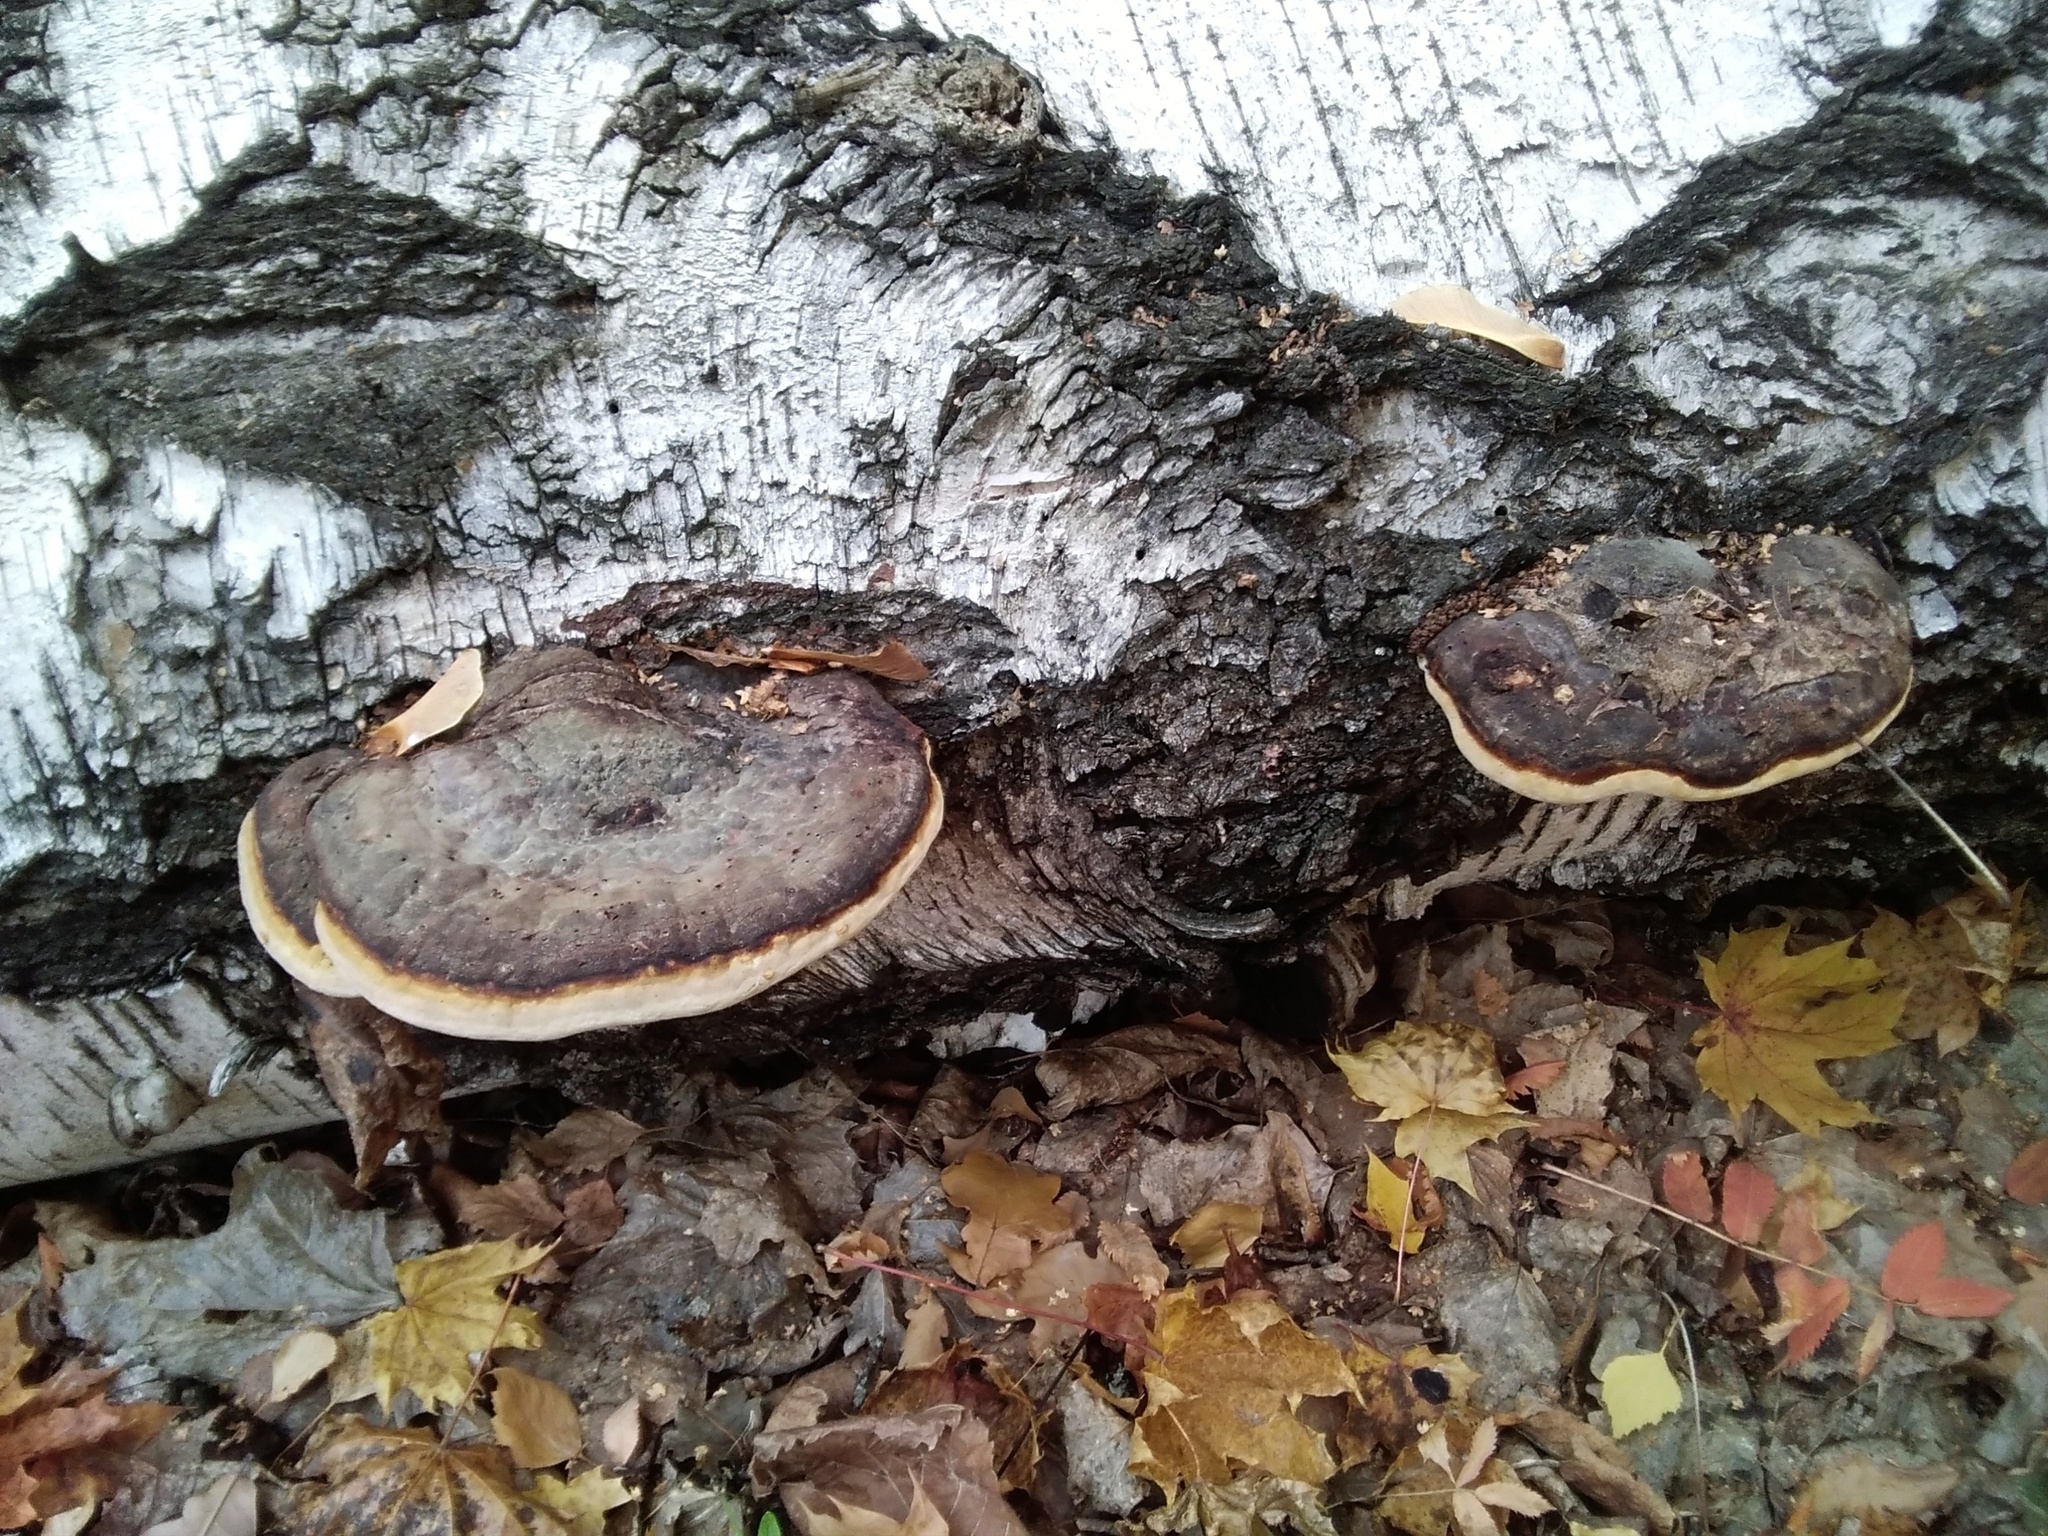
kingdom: Fungi
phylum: Basidiomycota
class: Agaricomycetes
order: Polyporales
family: Fomitopsidaceae
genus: Fomitopsis
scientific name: Fomitopsis pinicola
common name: Red-belted bracket
